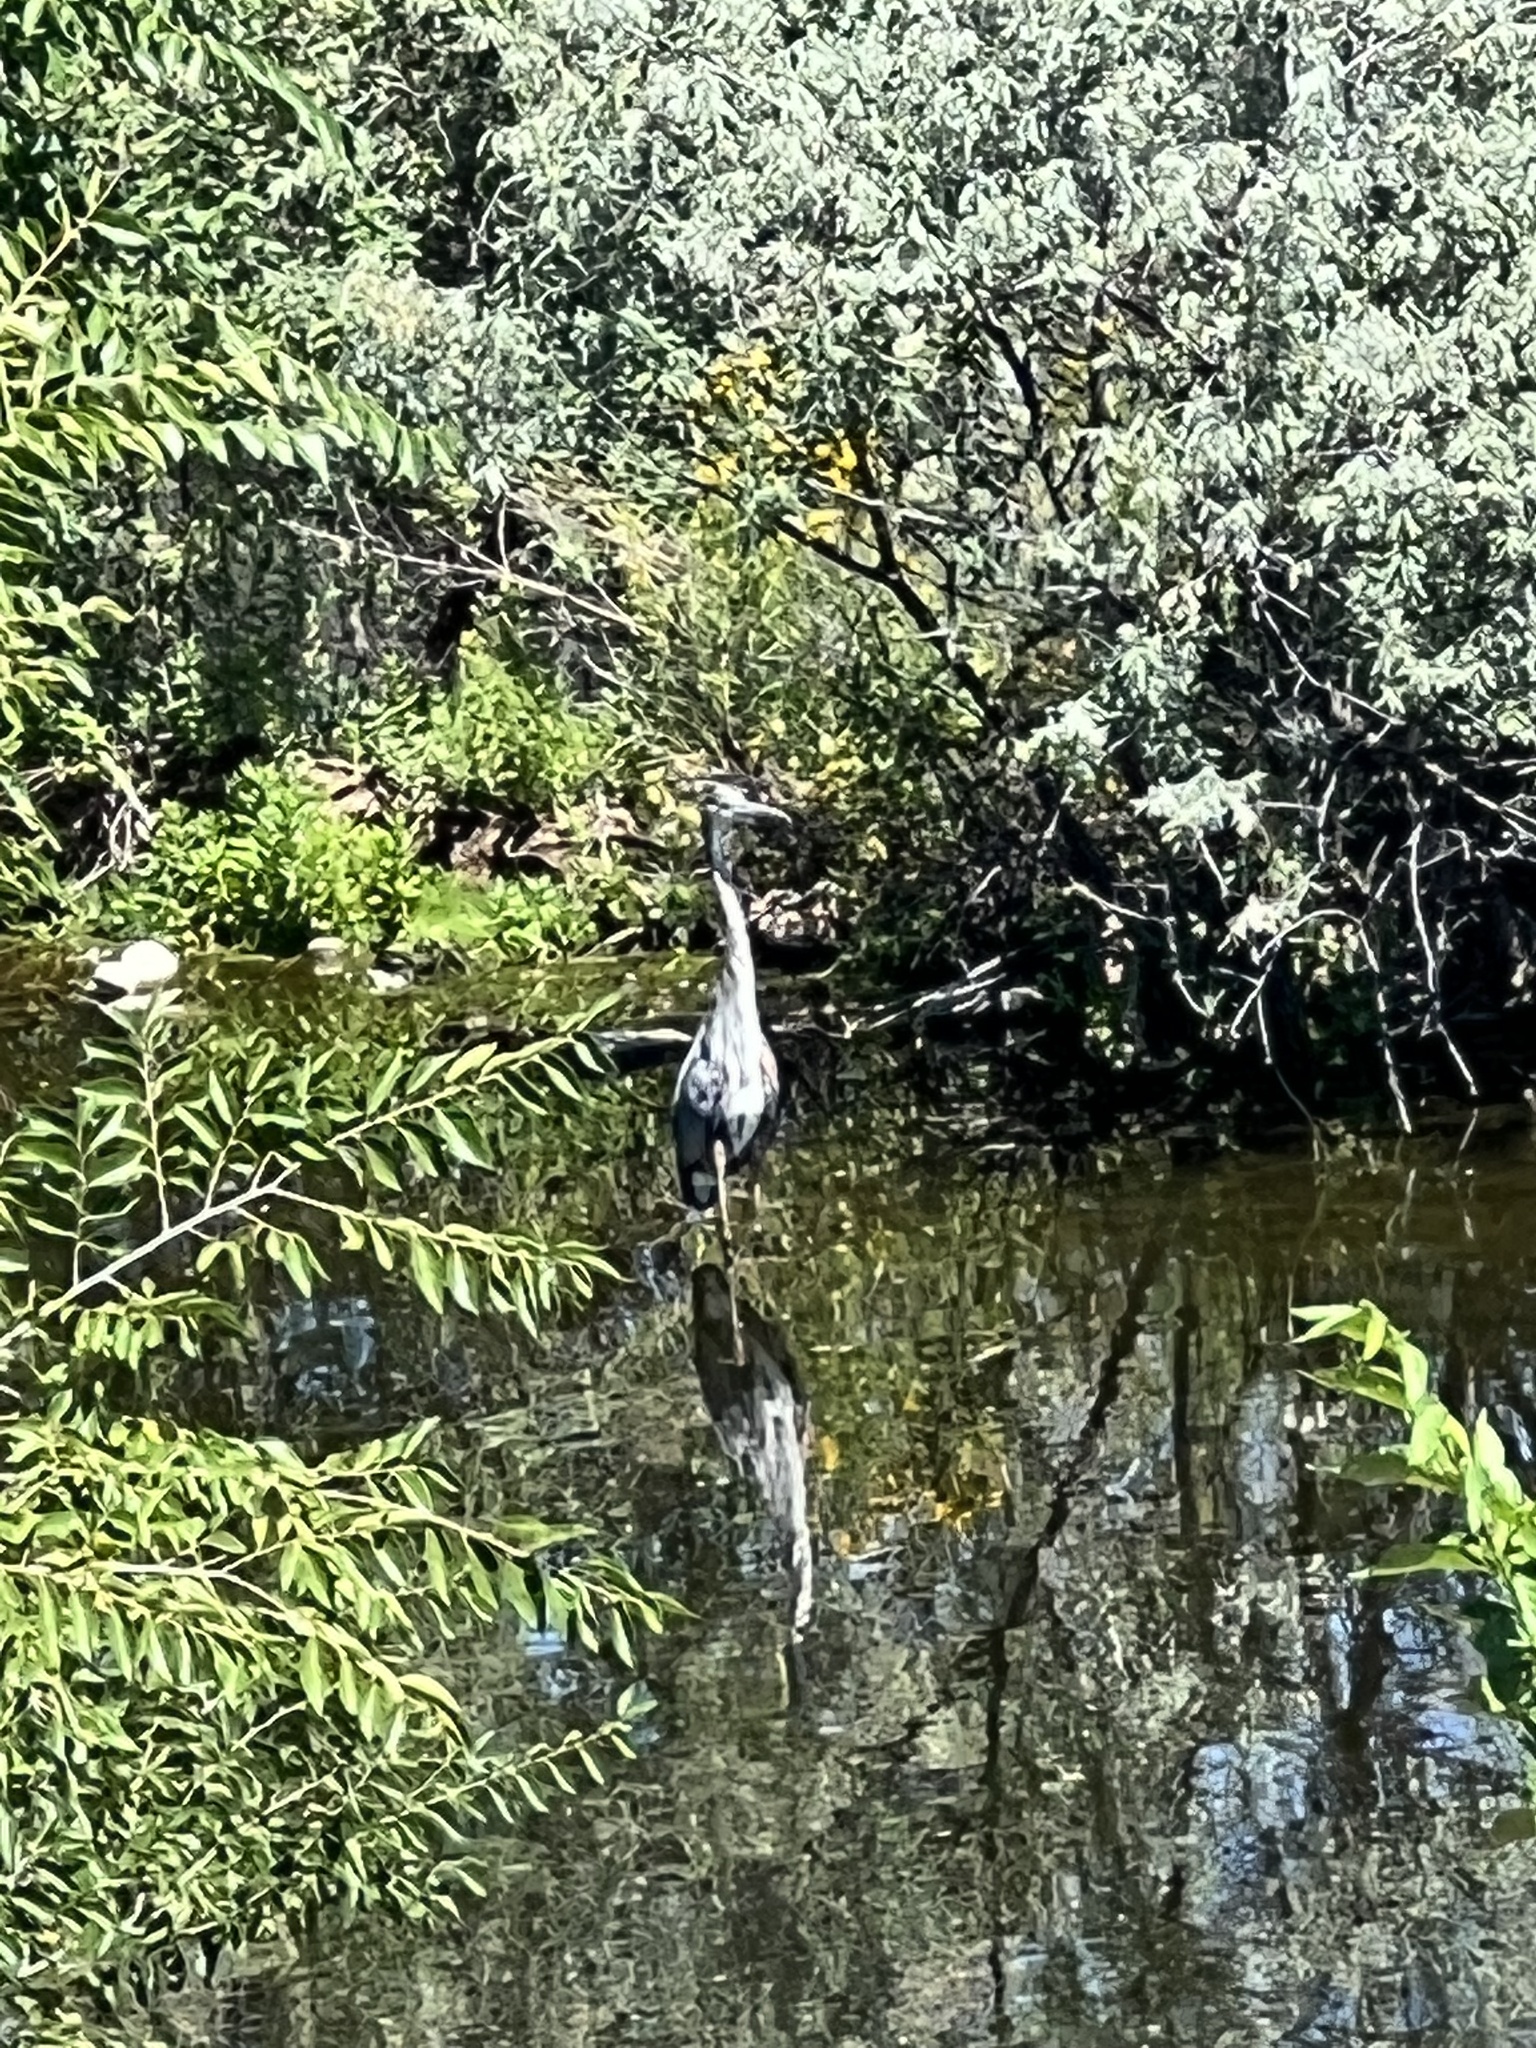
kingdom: Animalia
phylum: Chordata
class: Aves
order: Pelecaniformes
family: Ardeidae
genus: Ardea
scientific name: Ardea herodias
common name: Great blue heron
